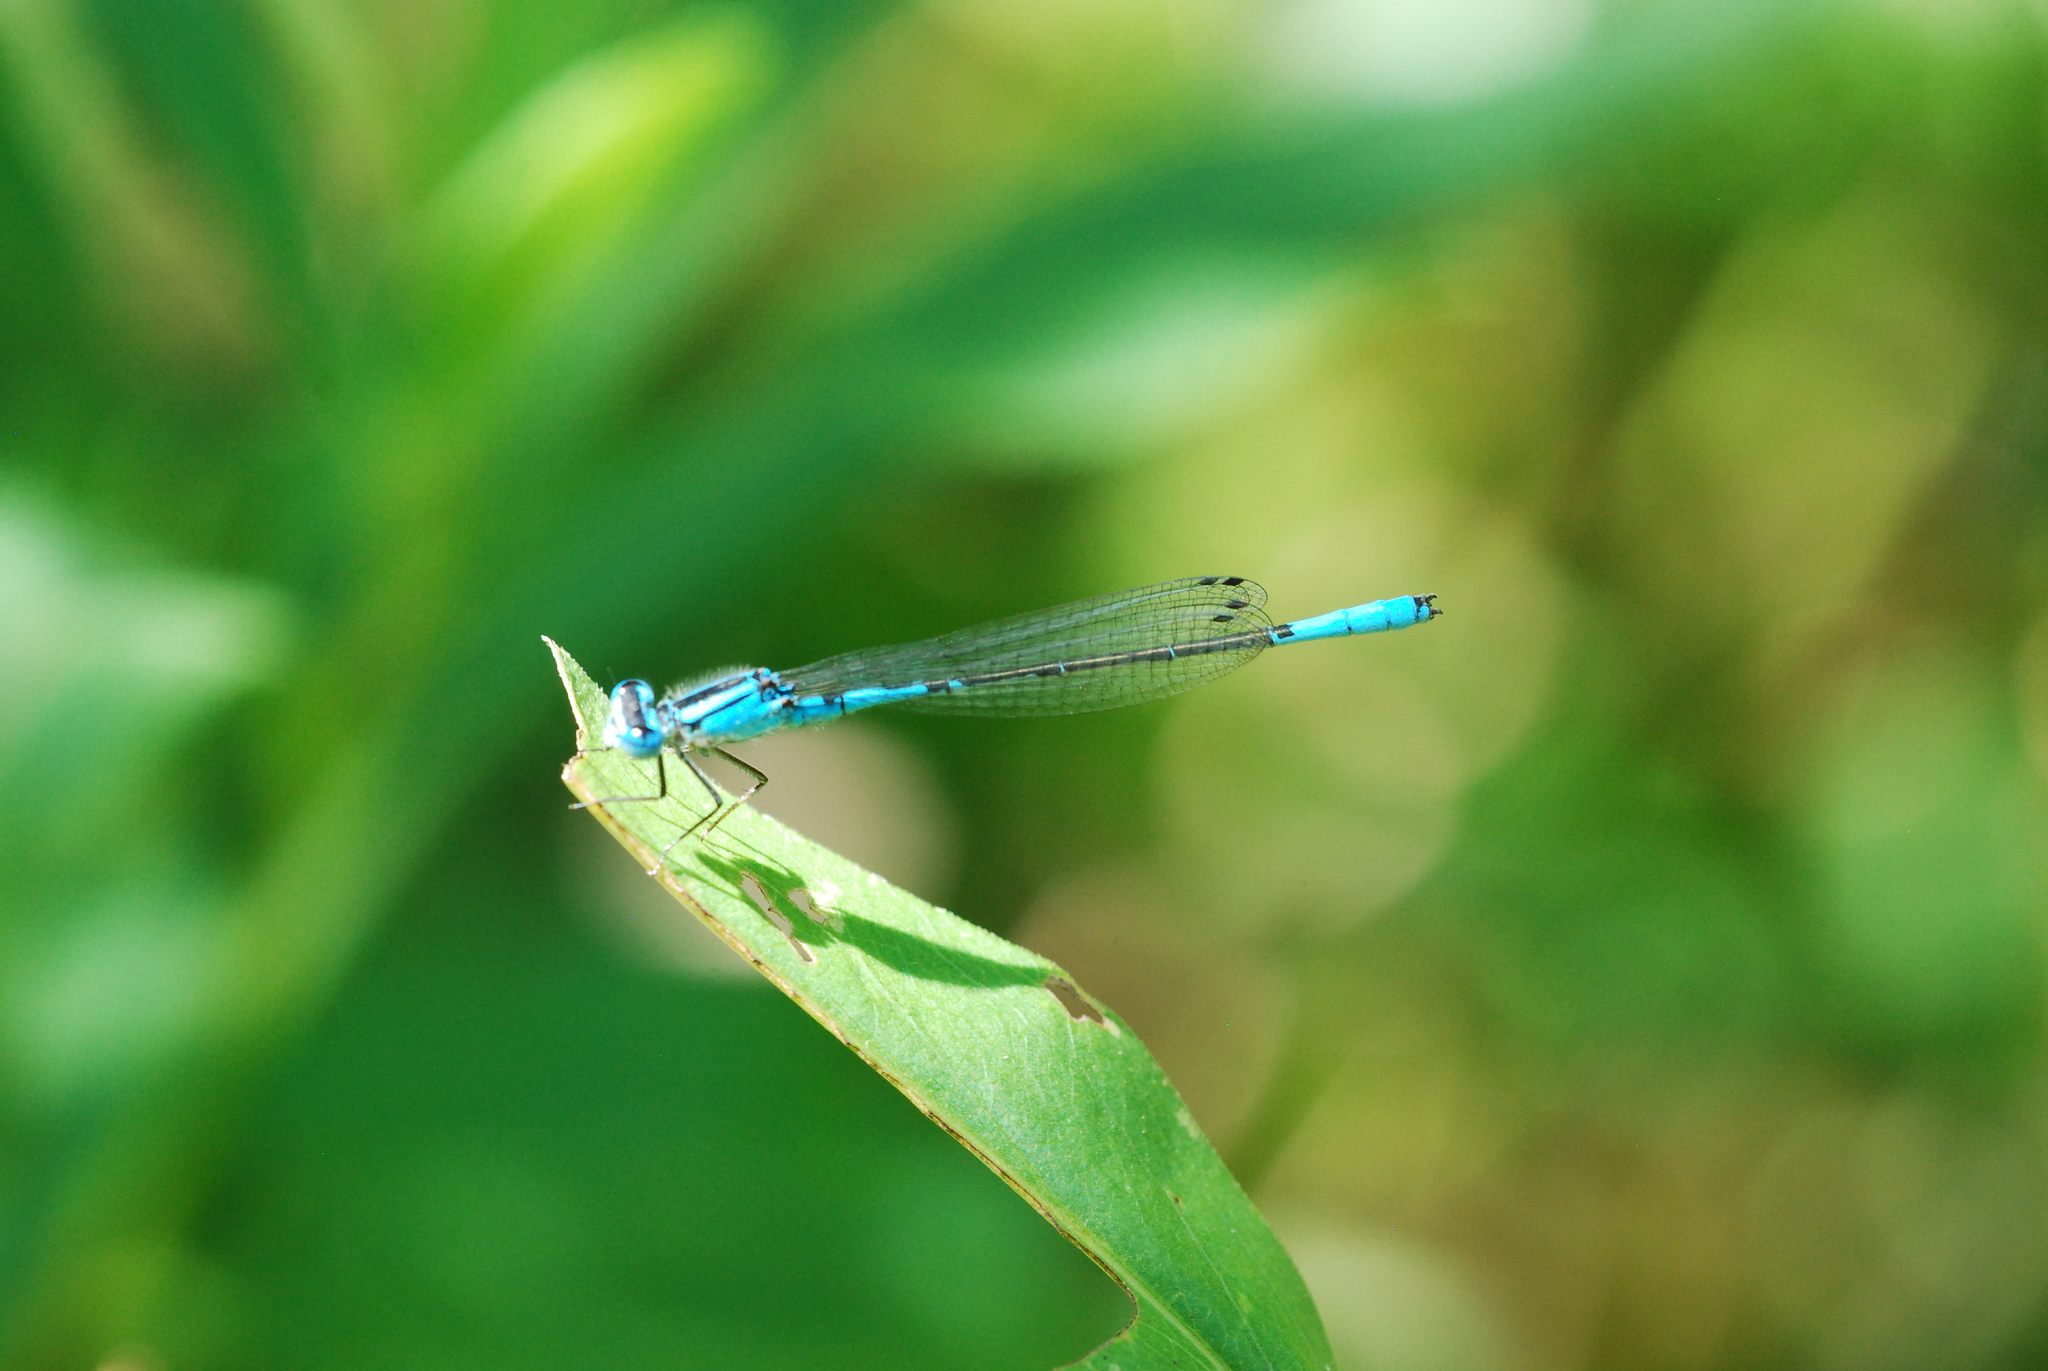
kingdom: Animalia
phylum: Arthropoda
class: Insecta
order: Odonata
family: Coenagrionidae
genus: Enallagma
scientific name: Enallagma aspersum
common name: Azure bluet
